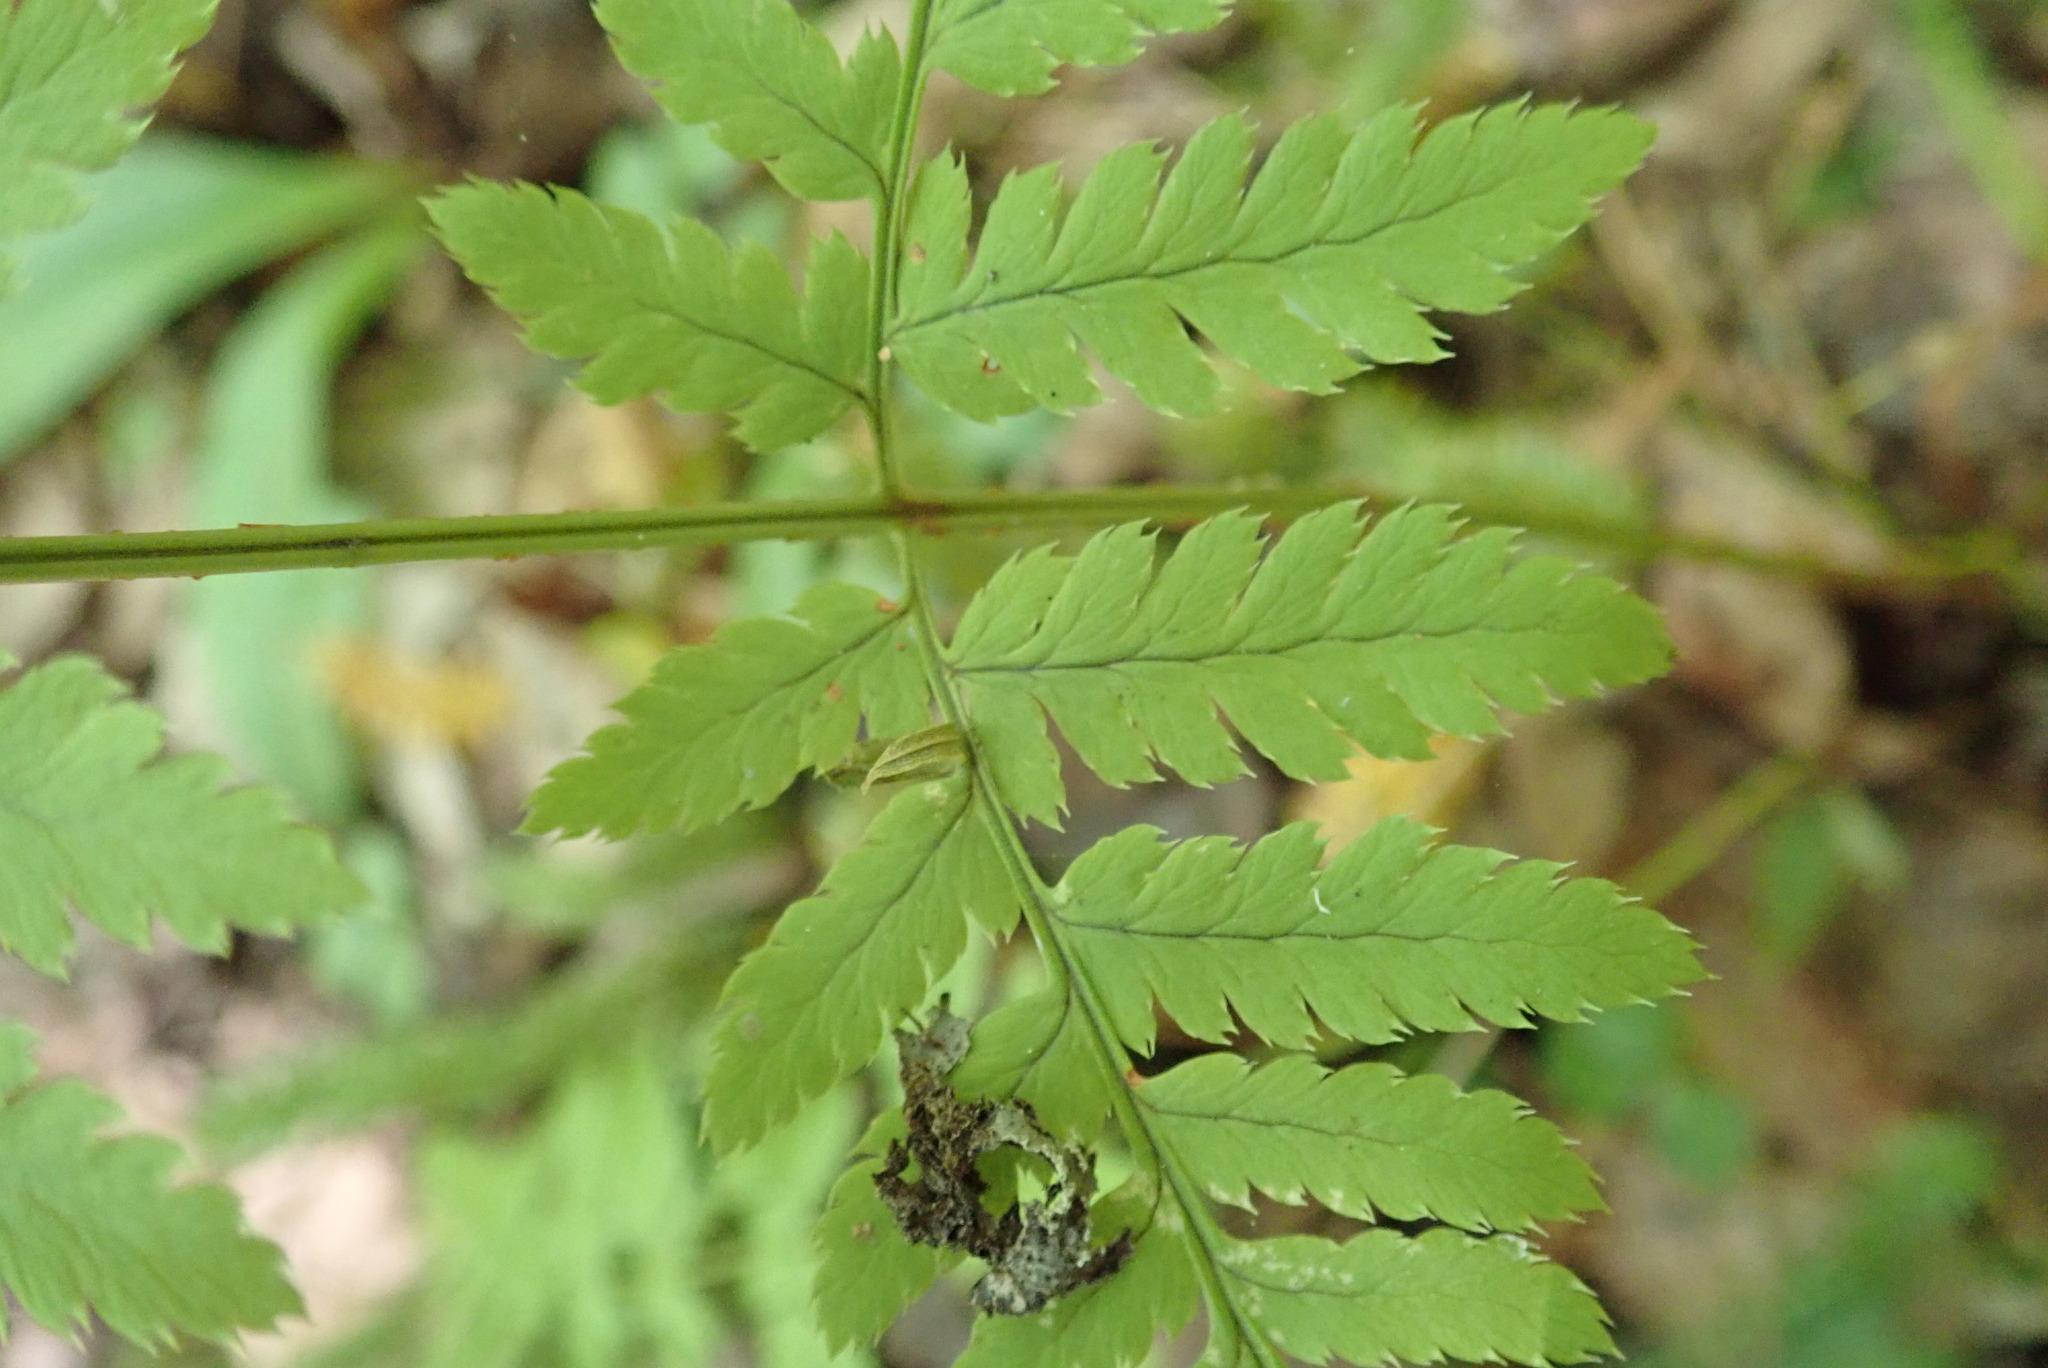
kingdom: Plantae
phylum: Tracheophyta
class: Polypodiopsida
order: Polypodiales
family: Dryopteridaceae
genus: Dryopteris
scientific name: Dryopteris carthusiana
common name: Narrow buckler-fern
